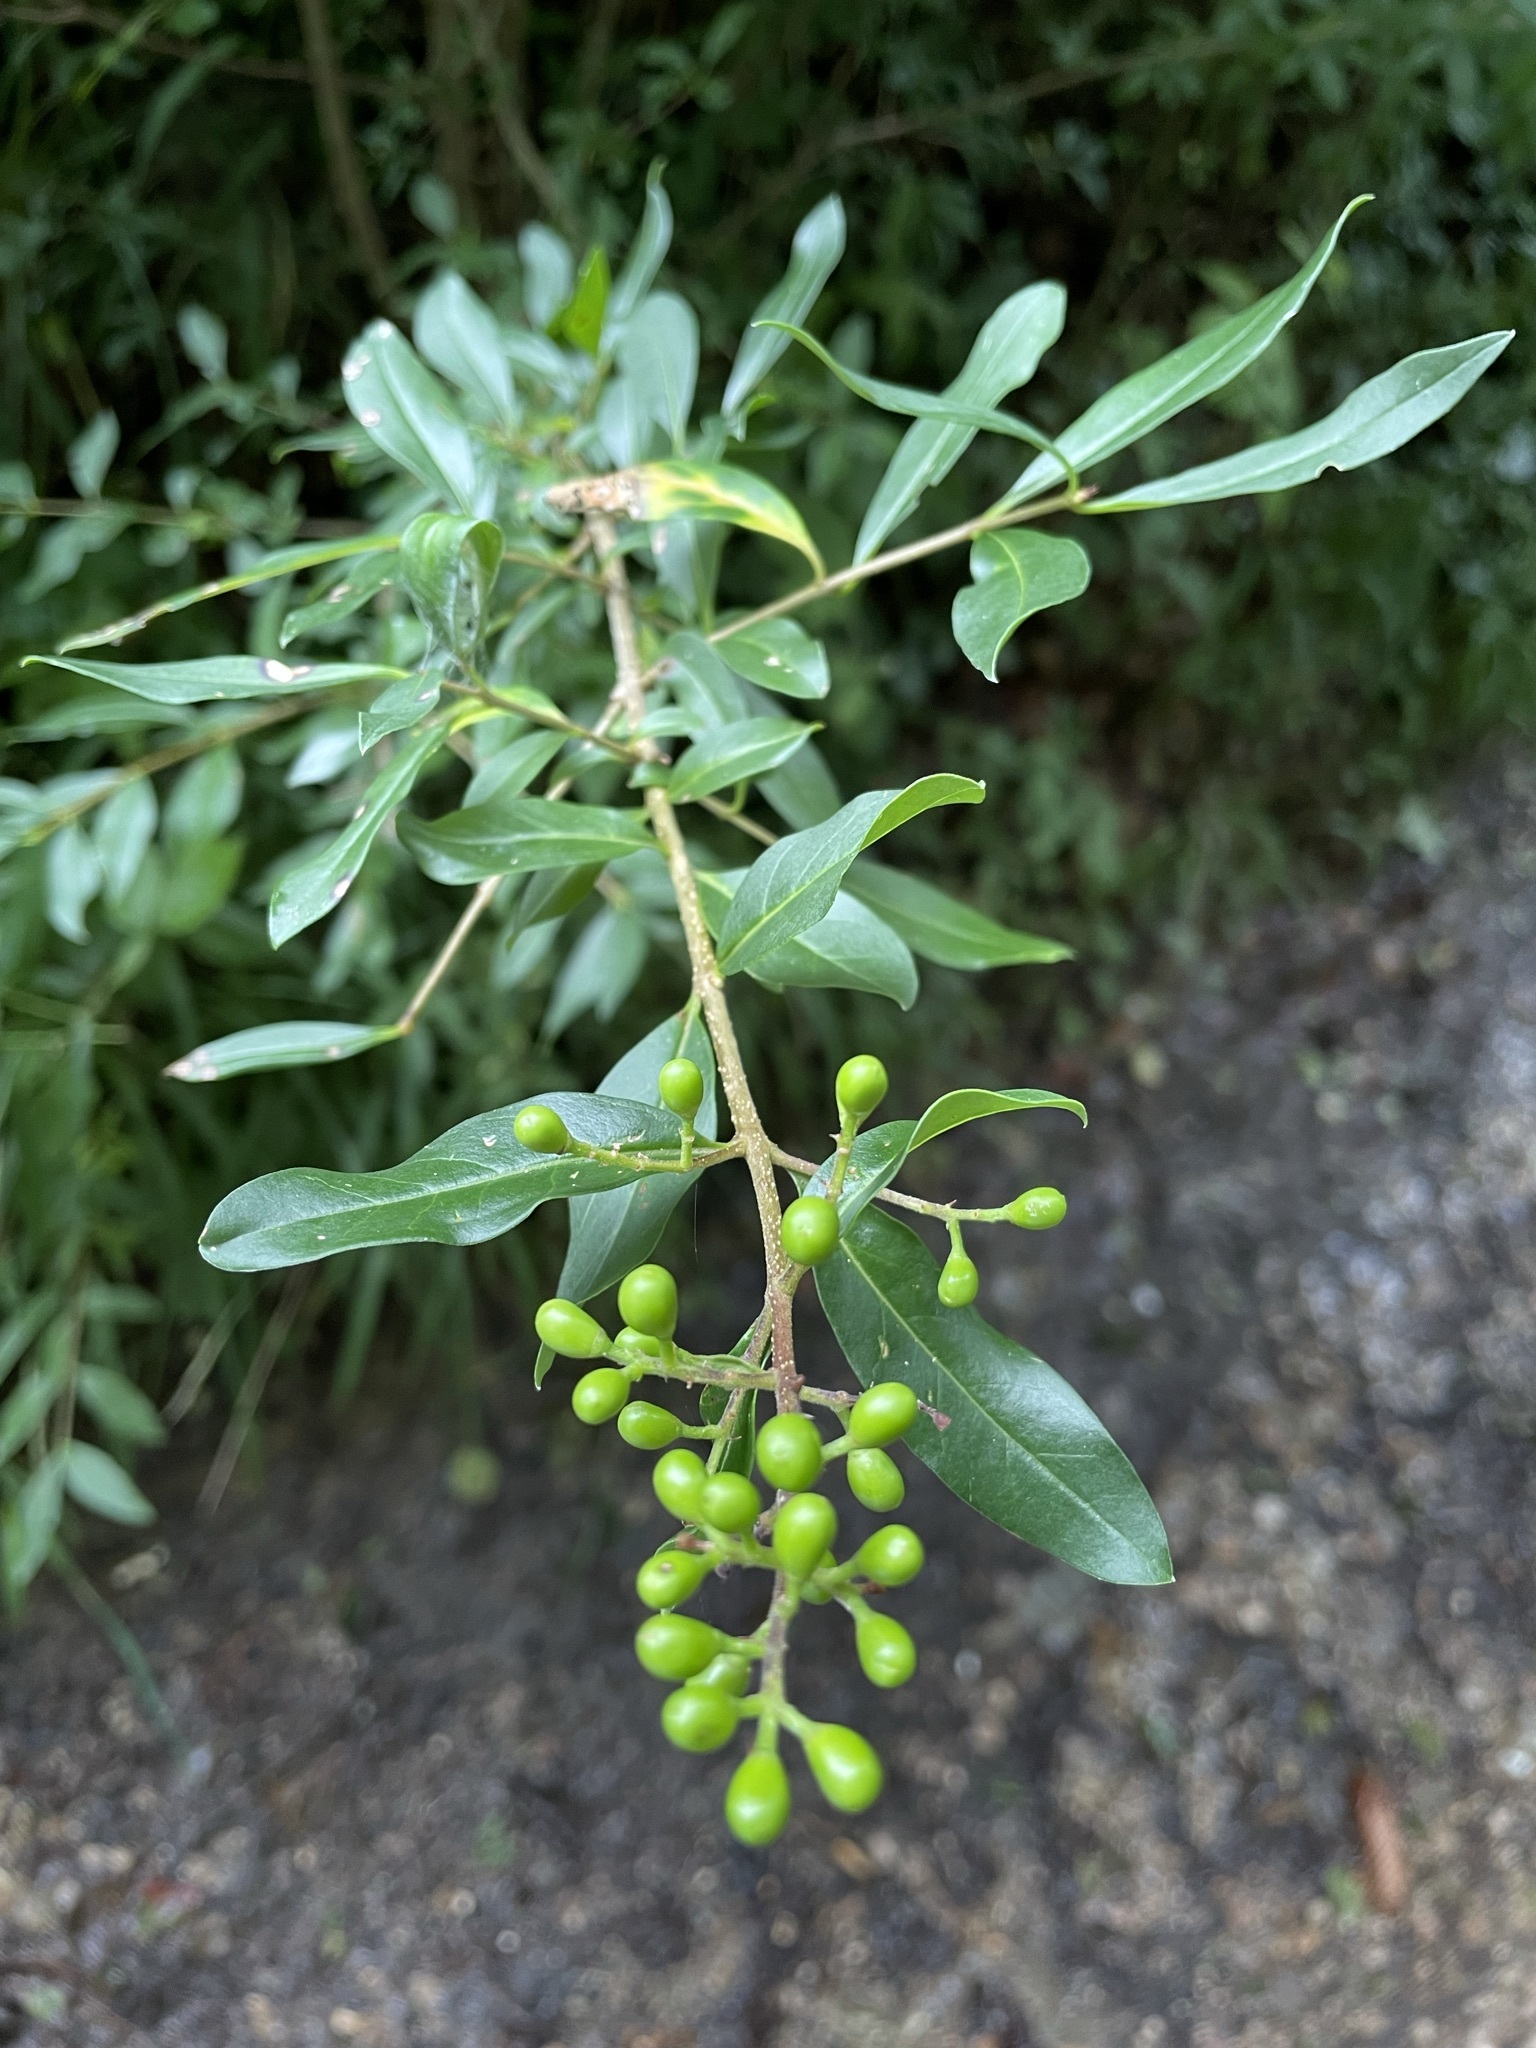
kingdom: Plantae
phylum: Tracheophyta
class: Magnoliopsida
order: Lamiales
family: Oleaceae
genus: Ligustrum
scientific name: Ligustrum vulgare
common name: Wild privet
